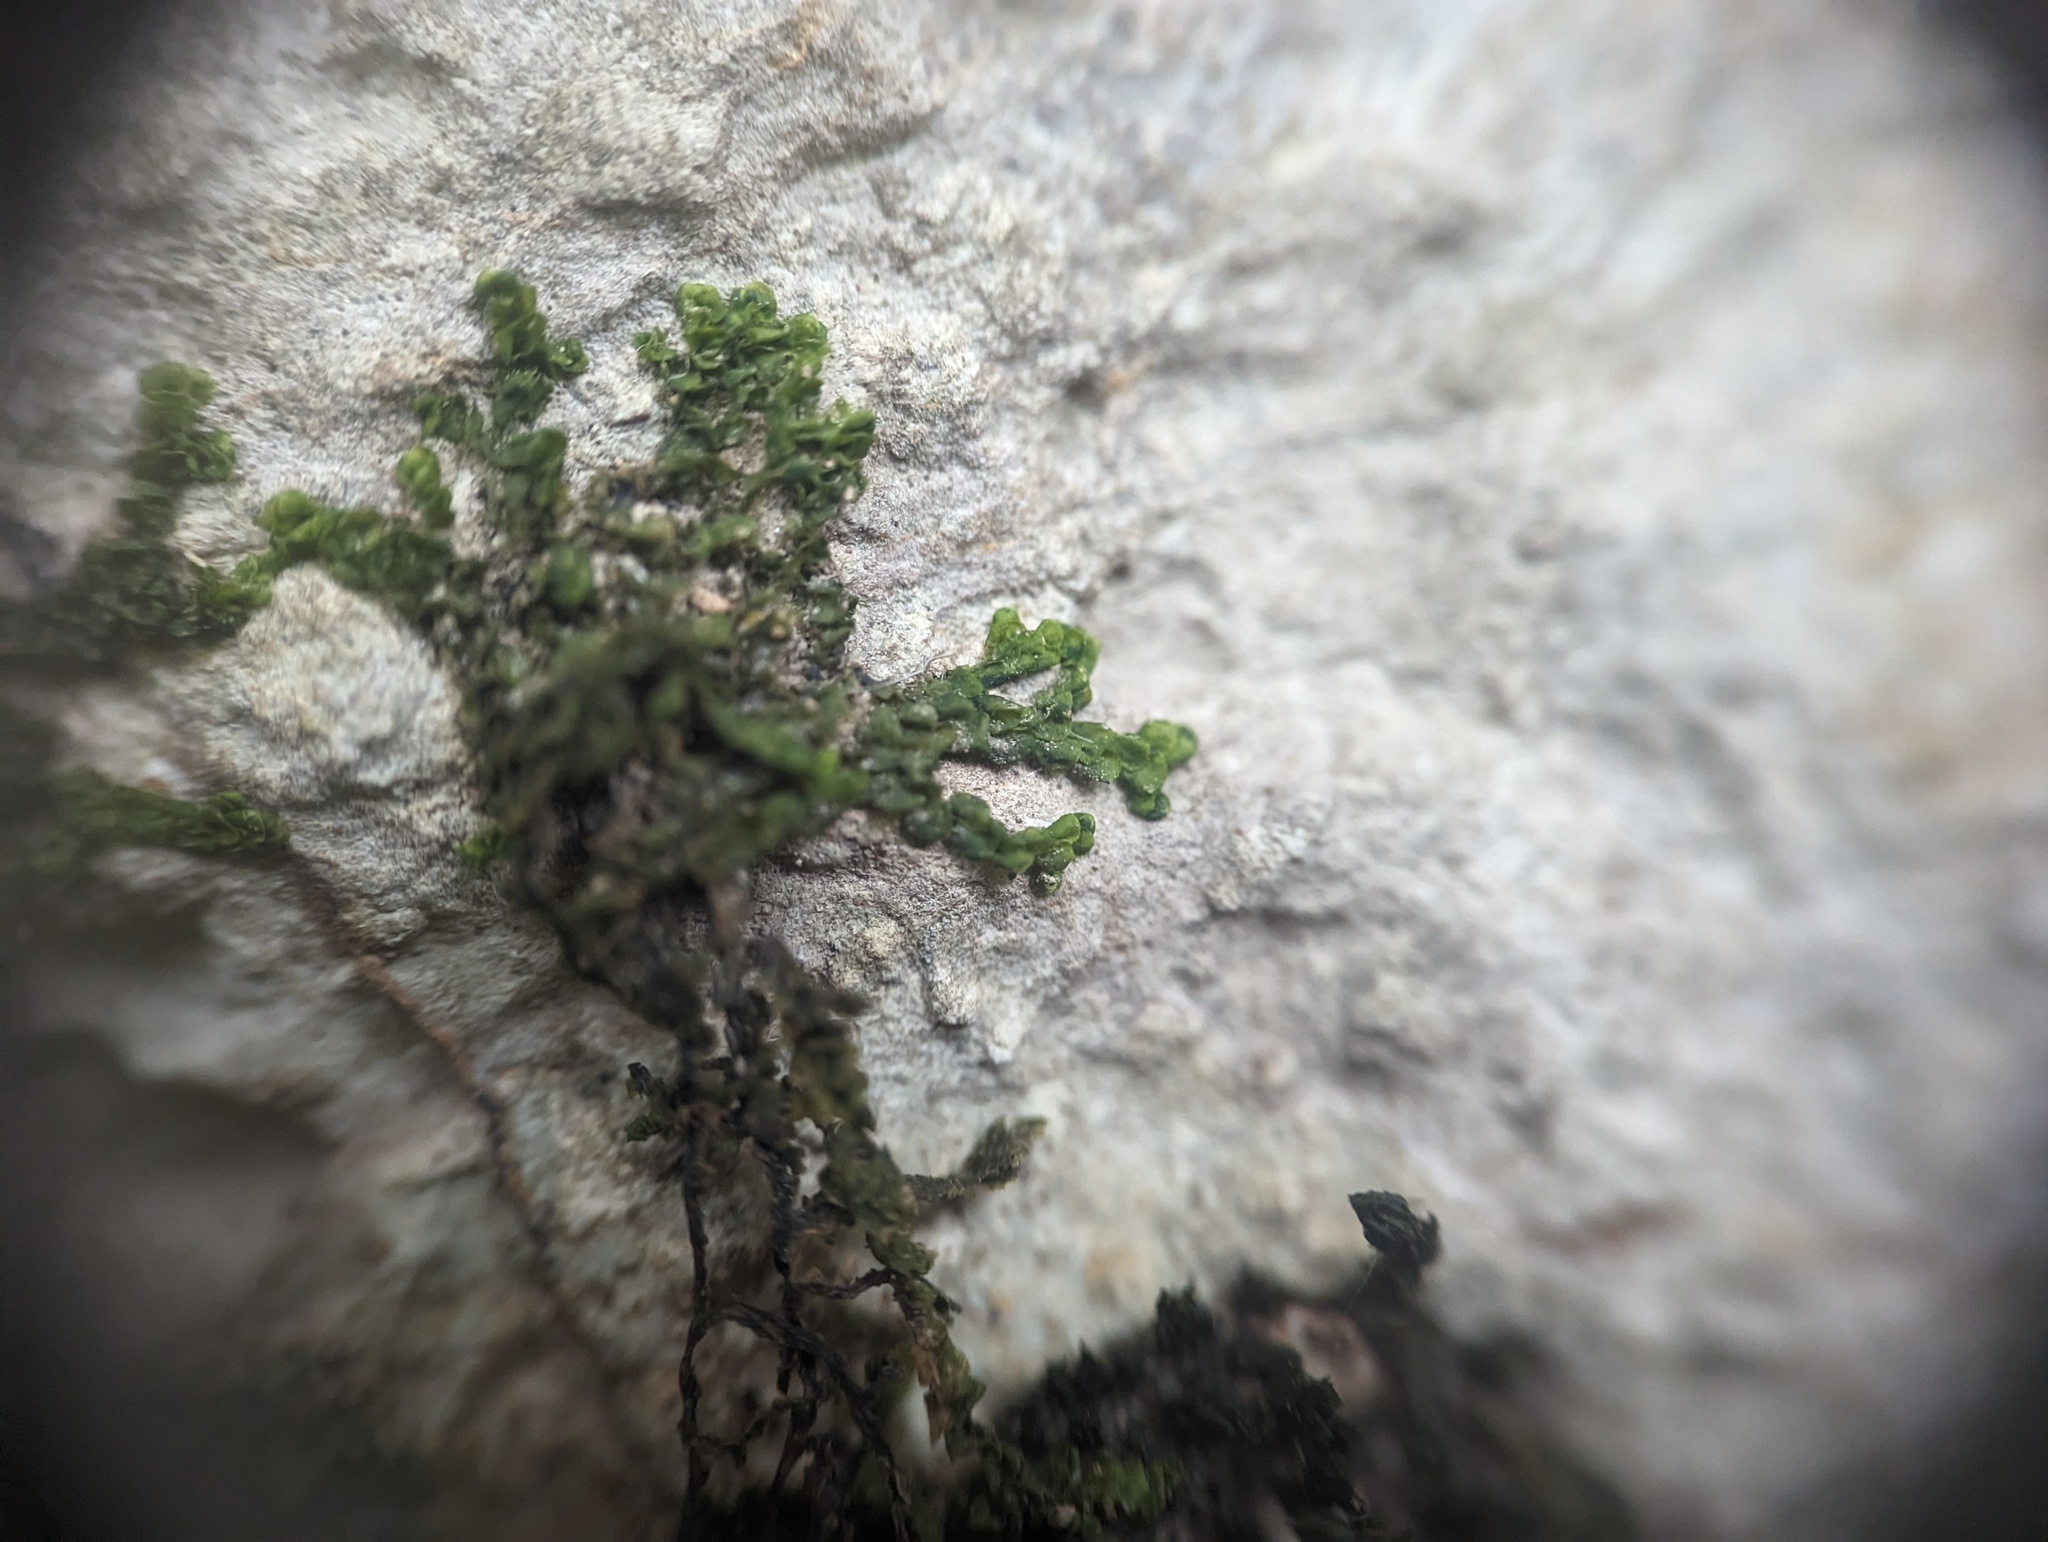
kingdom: Plantae
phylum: Marchantiophyta
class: Jungermanniopsida
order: Porellales
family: Porellaceae
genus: Porella
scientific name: Porella platyphylla
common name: Wall scalewort
